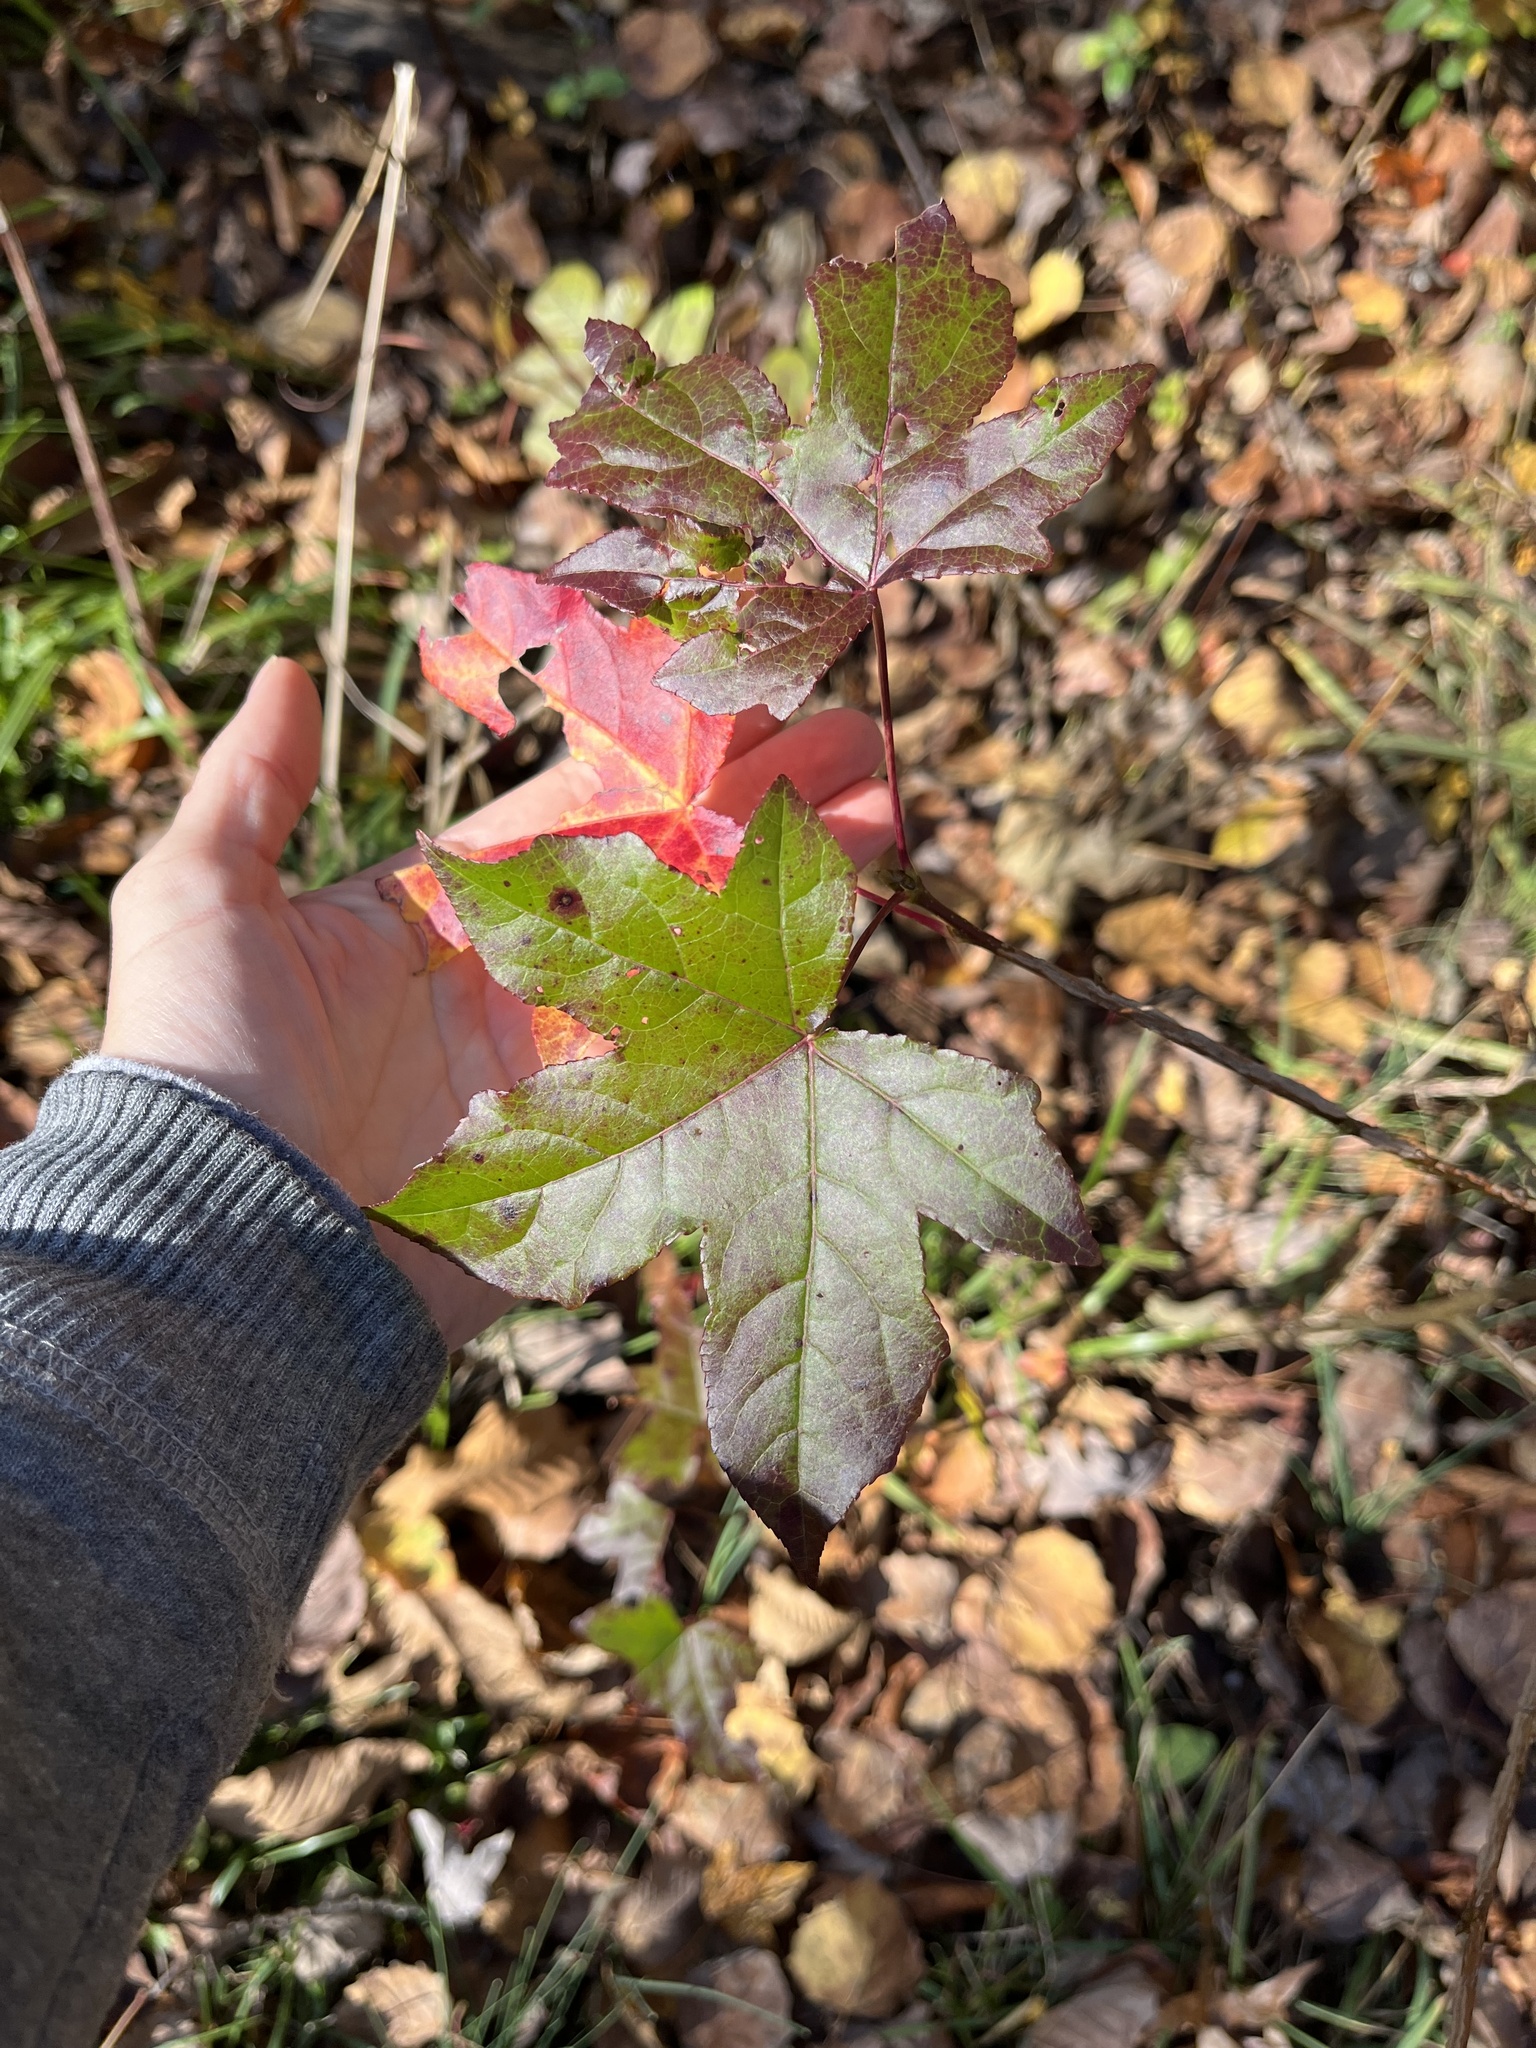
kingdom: Plantae
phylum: Tracheophyta
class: Magnoliopsida
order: Saxifragales
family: Altingiaceae
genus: Liquidambar
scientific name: Liquidambar styraciflua
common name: Sweet gum
